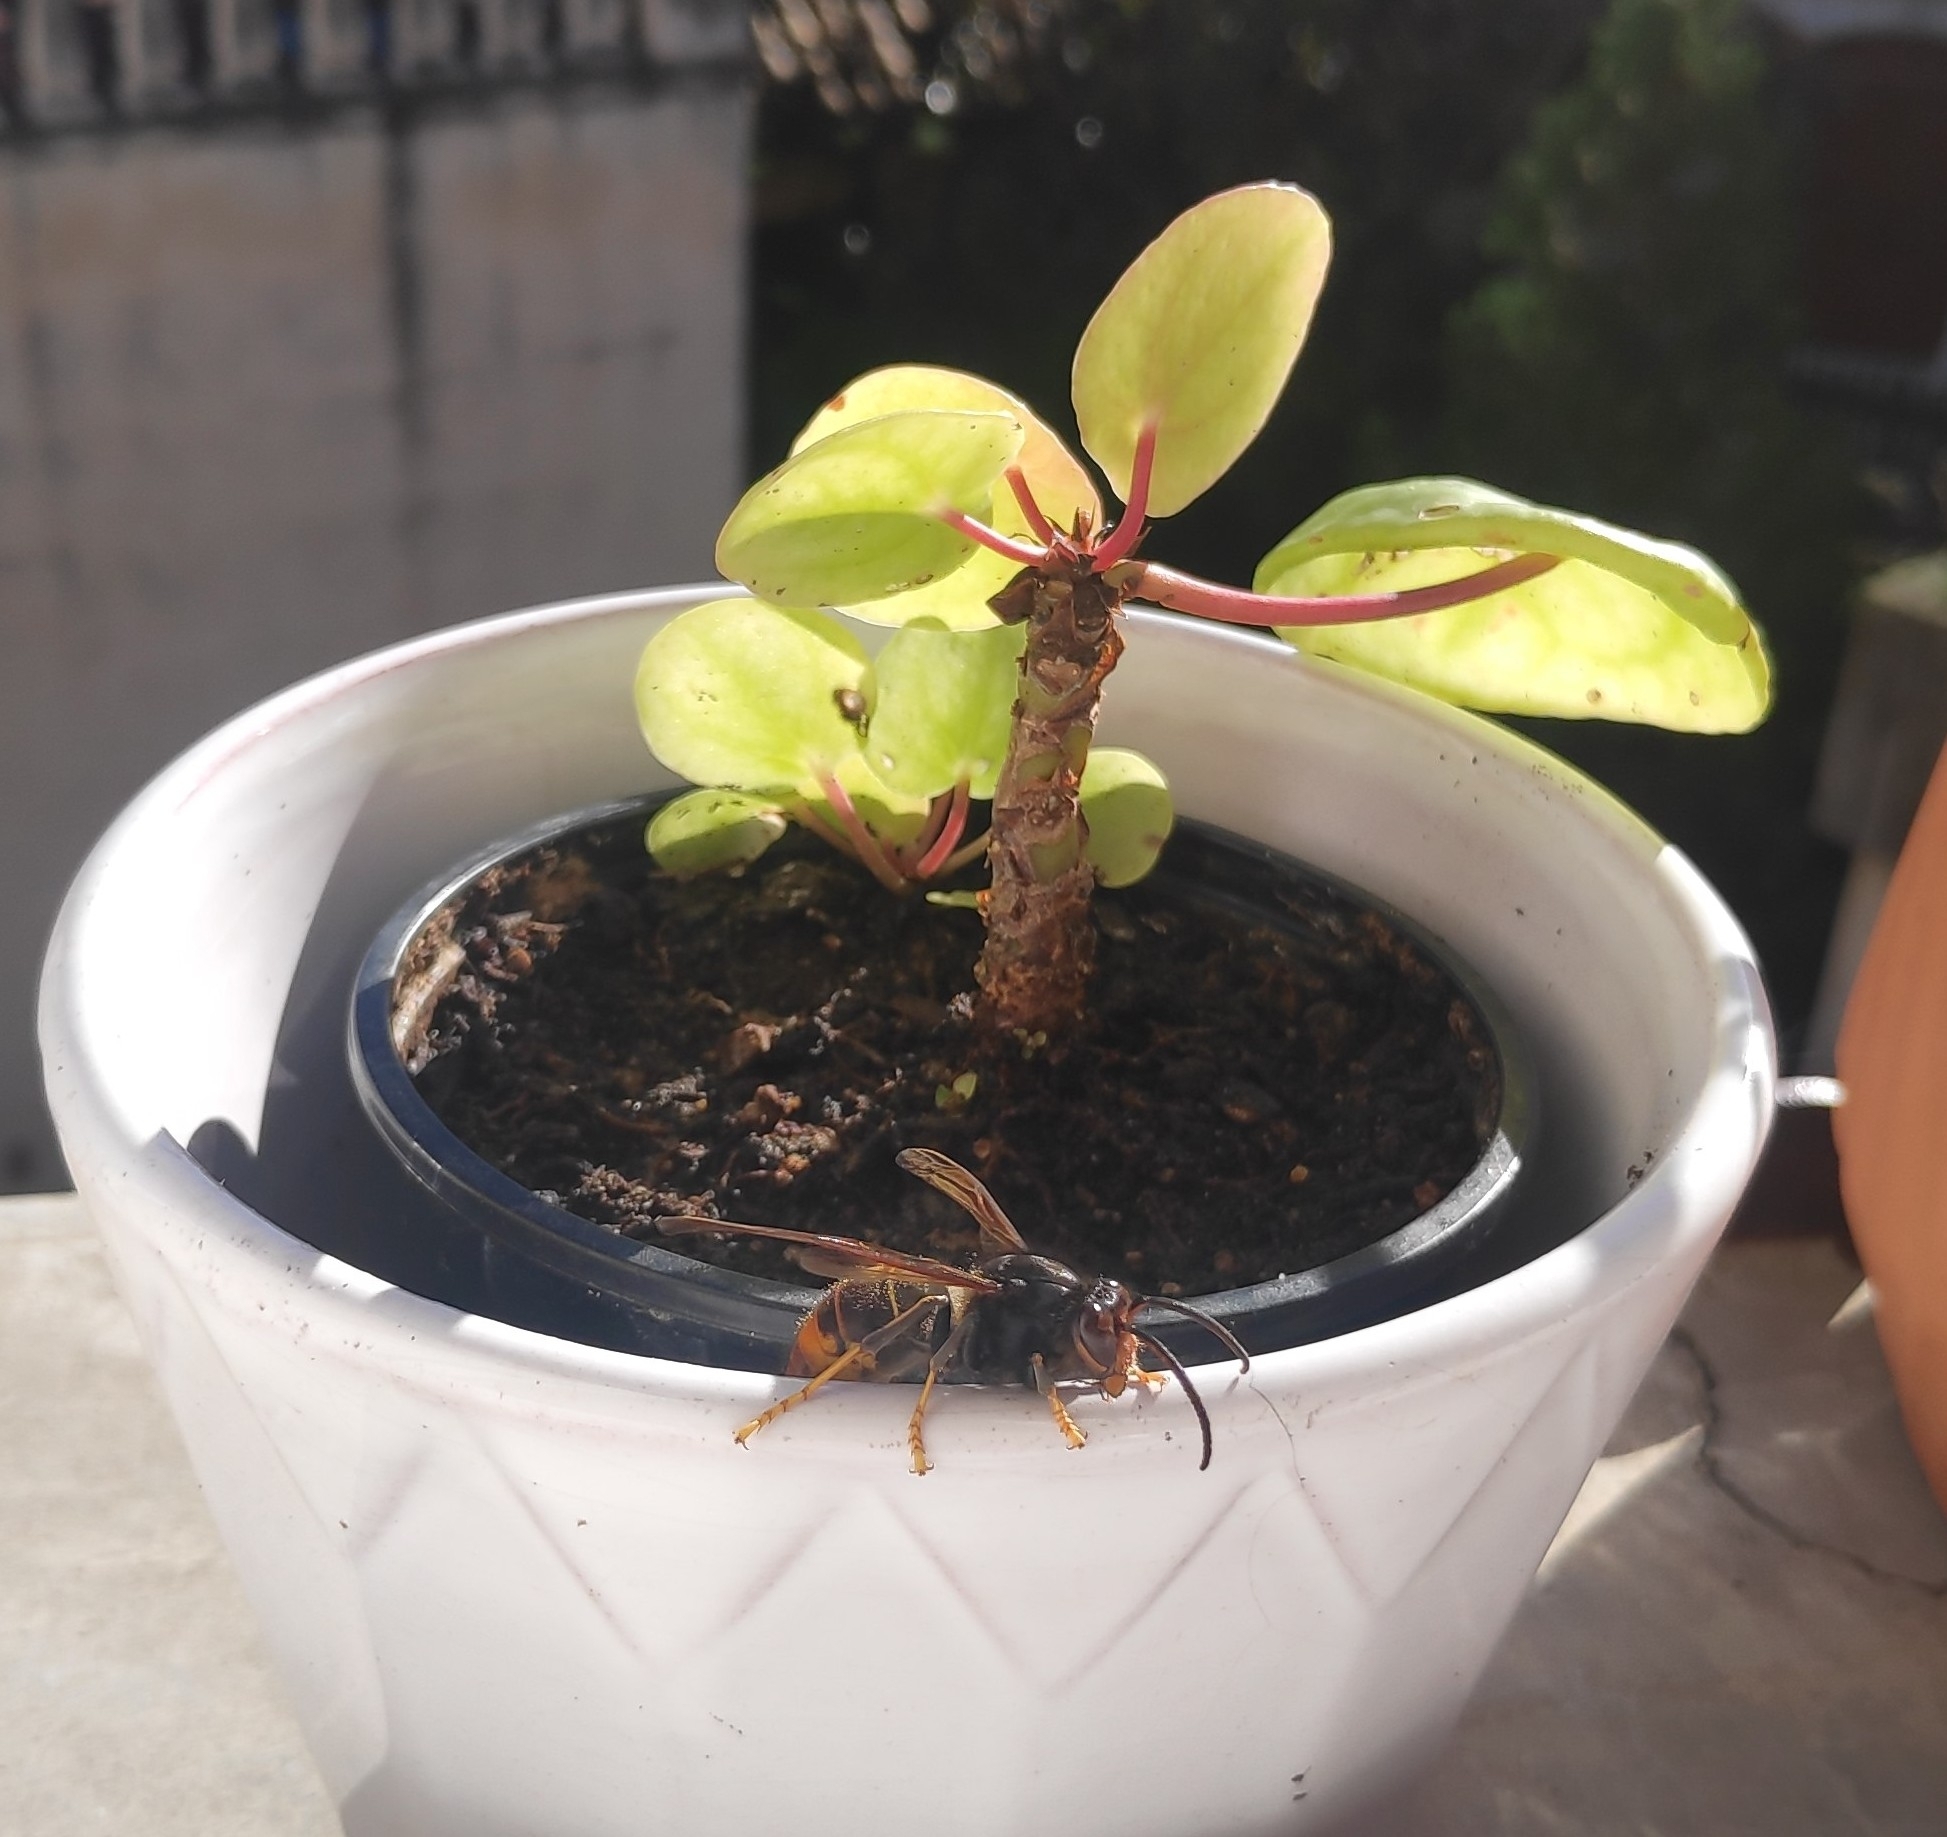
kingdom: Animalia
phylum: Arthropoda
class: Insecta
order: Hymenoptera
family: Vespidae
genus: Vespa
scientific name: Vespa velutina
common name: Asian hornet
